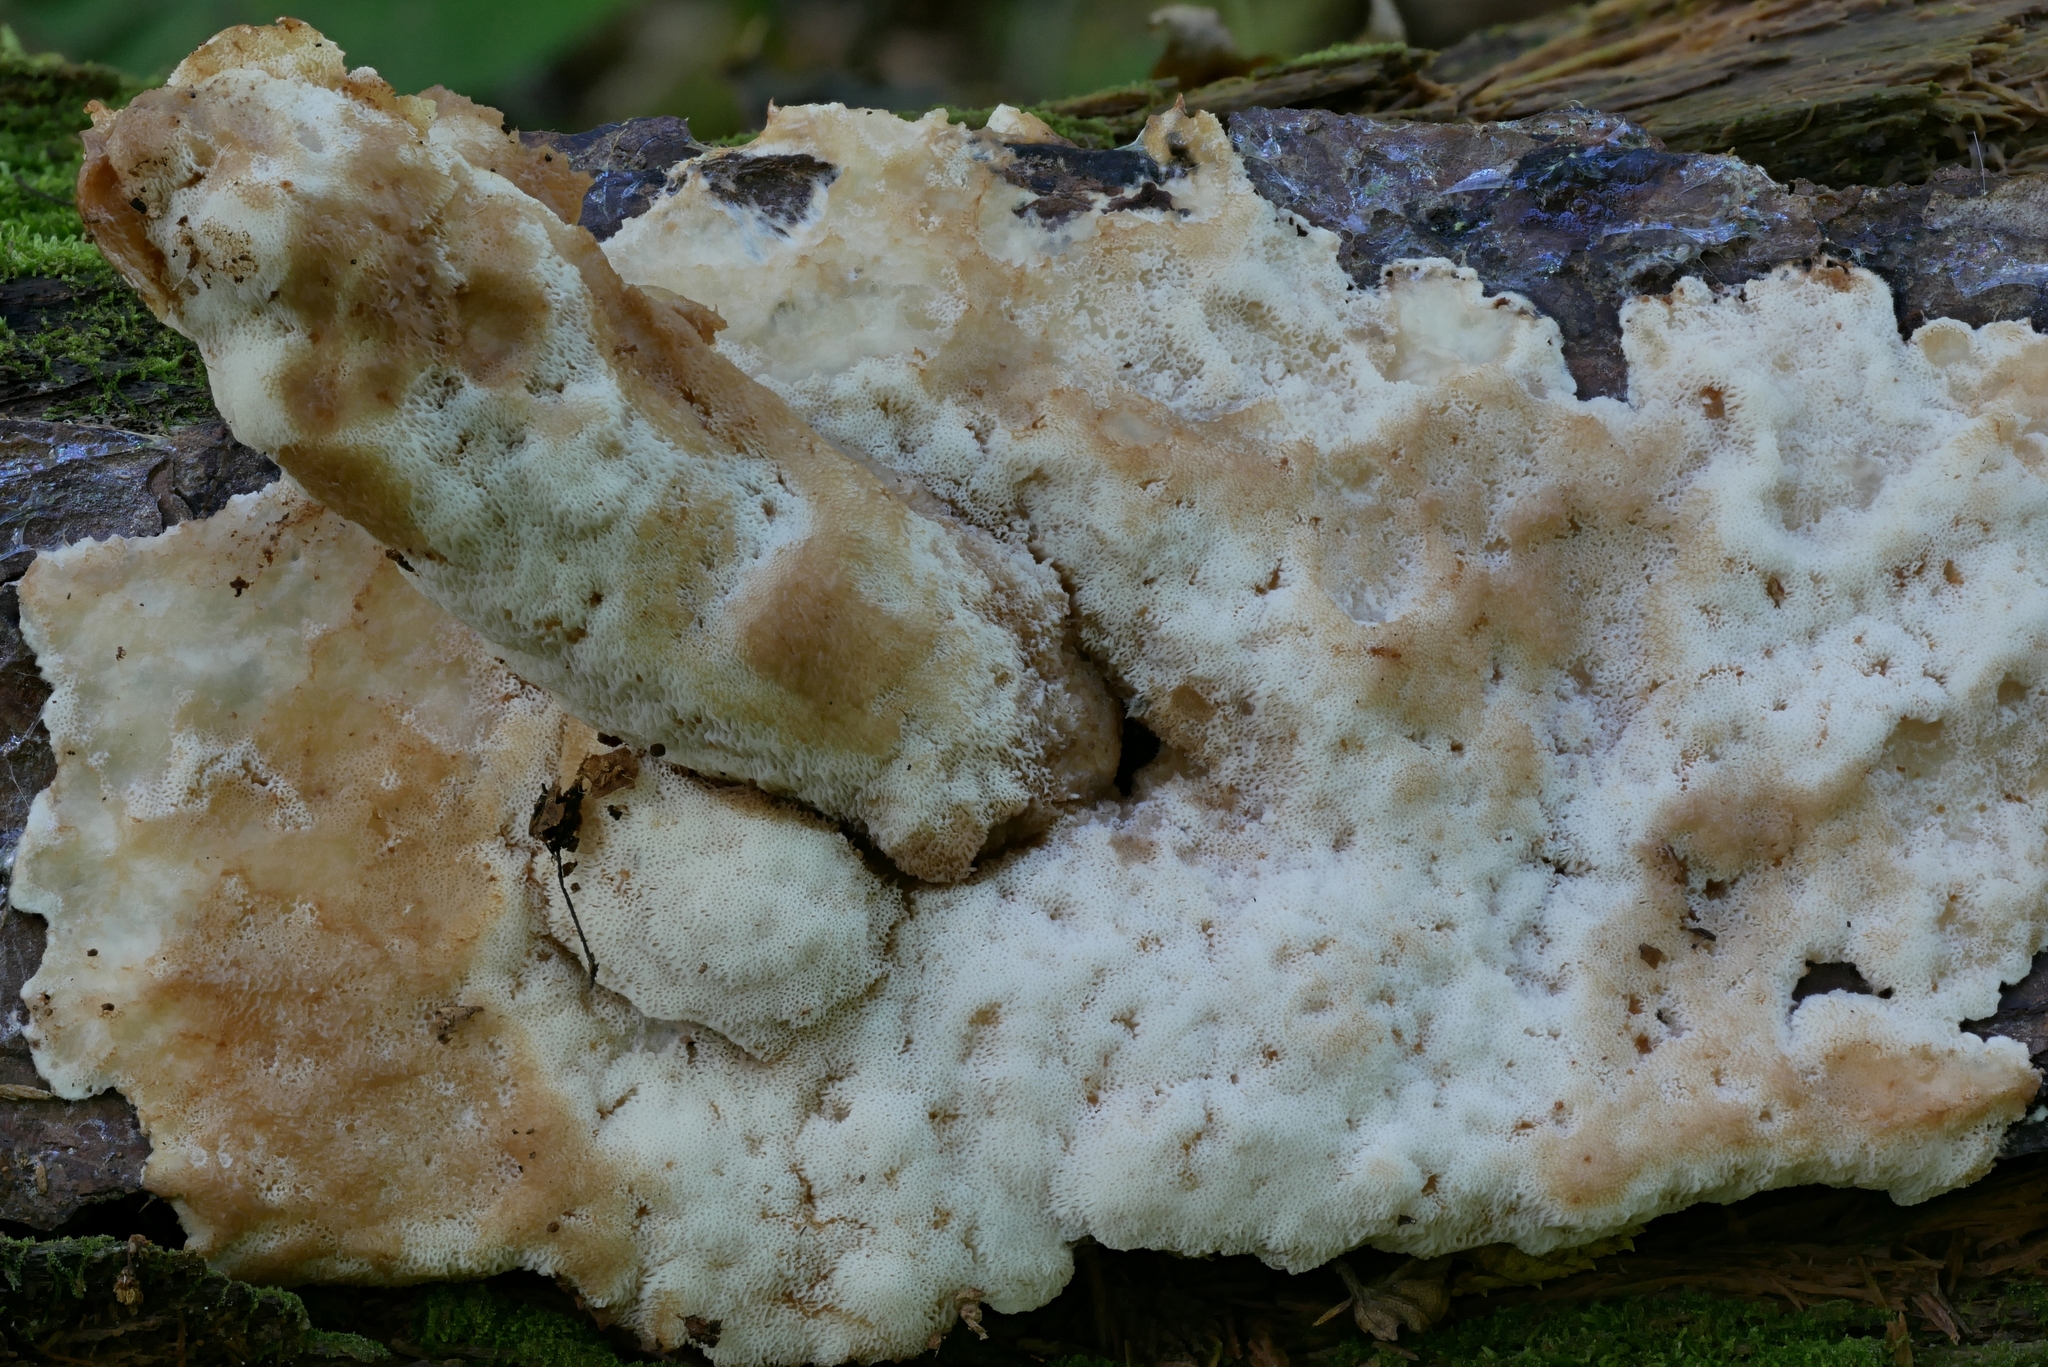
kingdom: Fungi
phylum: Basidiomycota
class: Agaricomycetes
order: Polyporales
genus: Fuscopostia
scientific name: Fuscopostia fragilis
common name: Brown-staining cheese polypore
